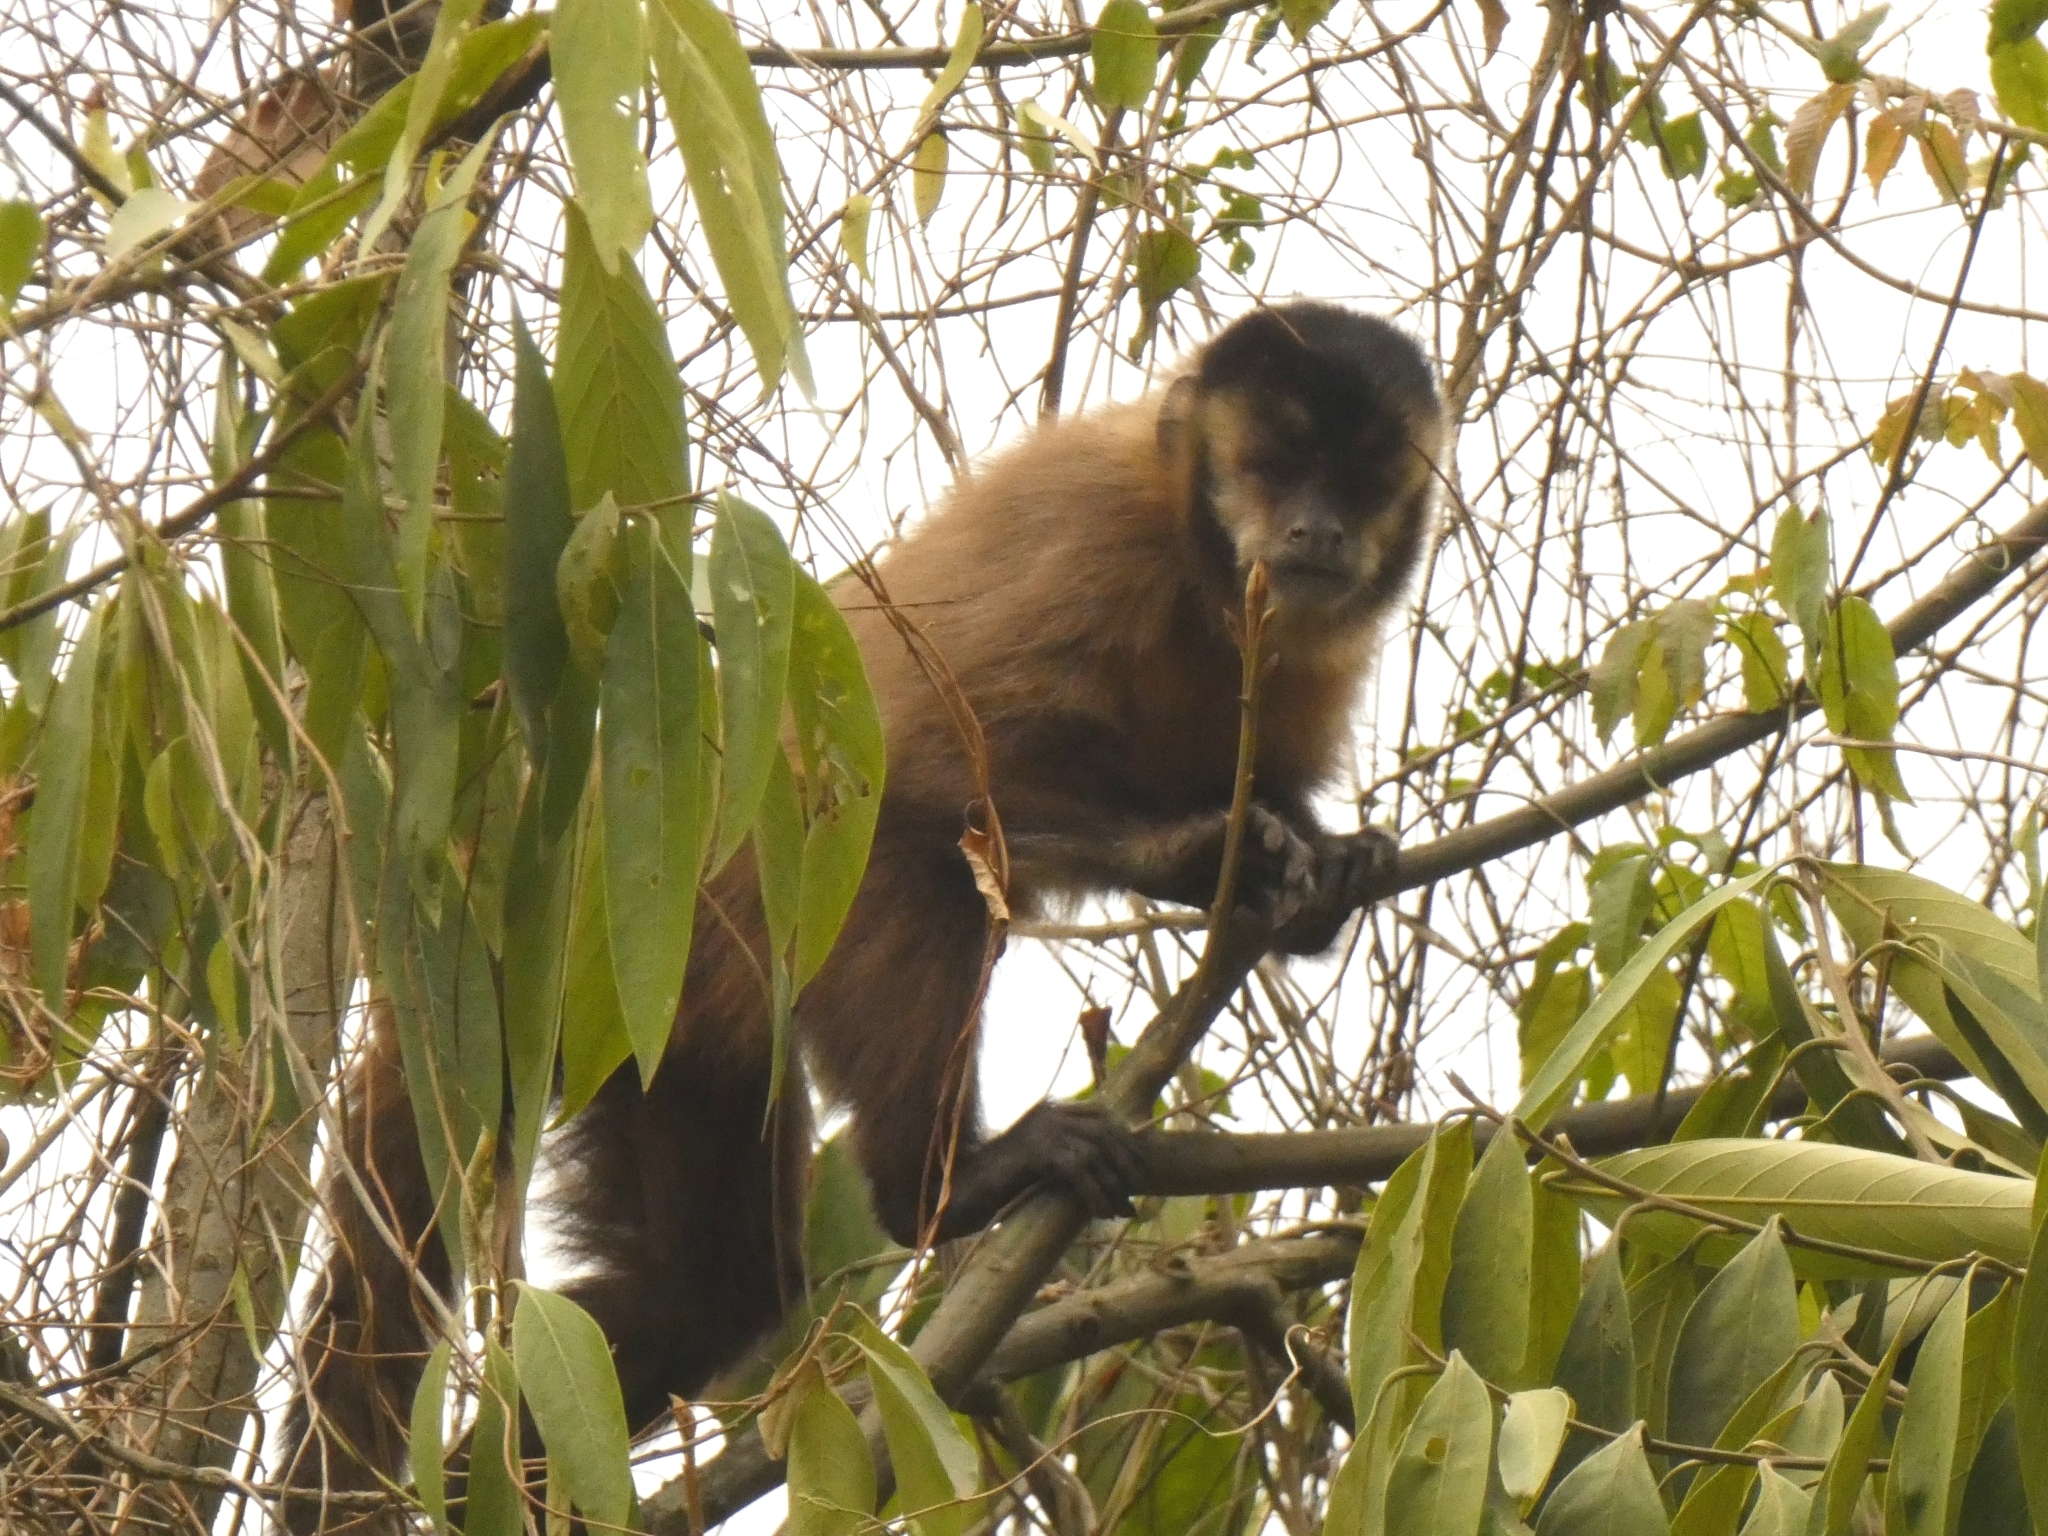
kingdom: Animalia
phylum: Chordata
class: Mammalia
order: Primates
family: Cebidae
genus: Sapajus
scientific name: Sapajus cay
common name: Hooded capuchin
